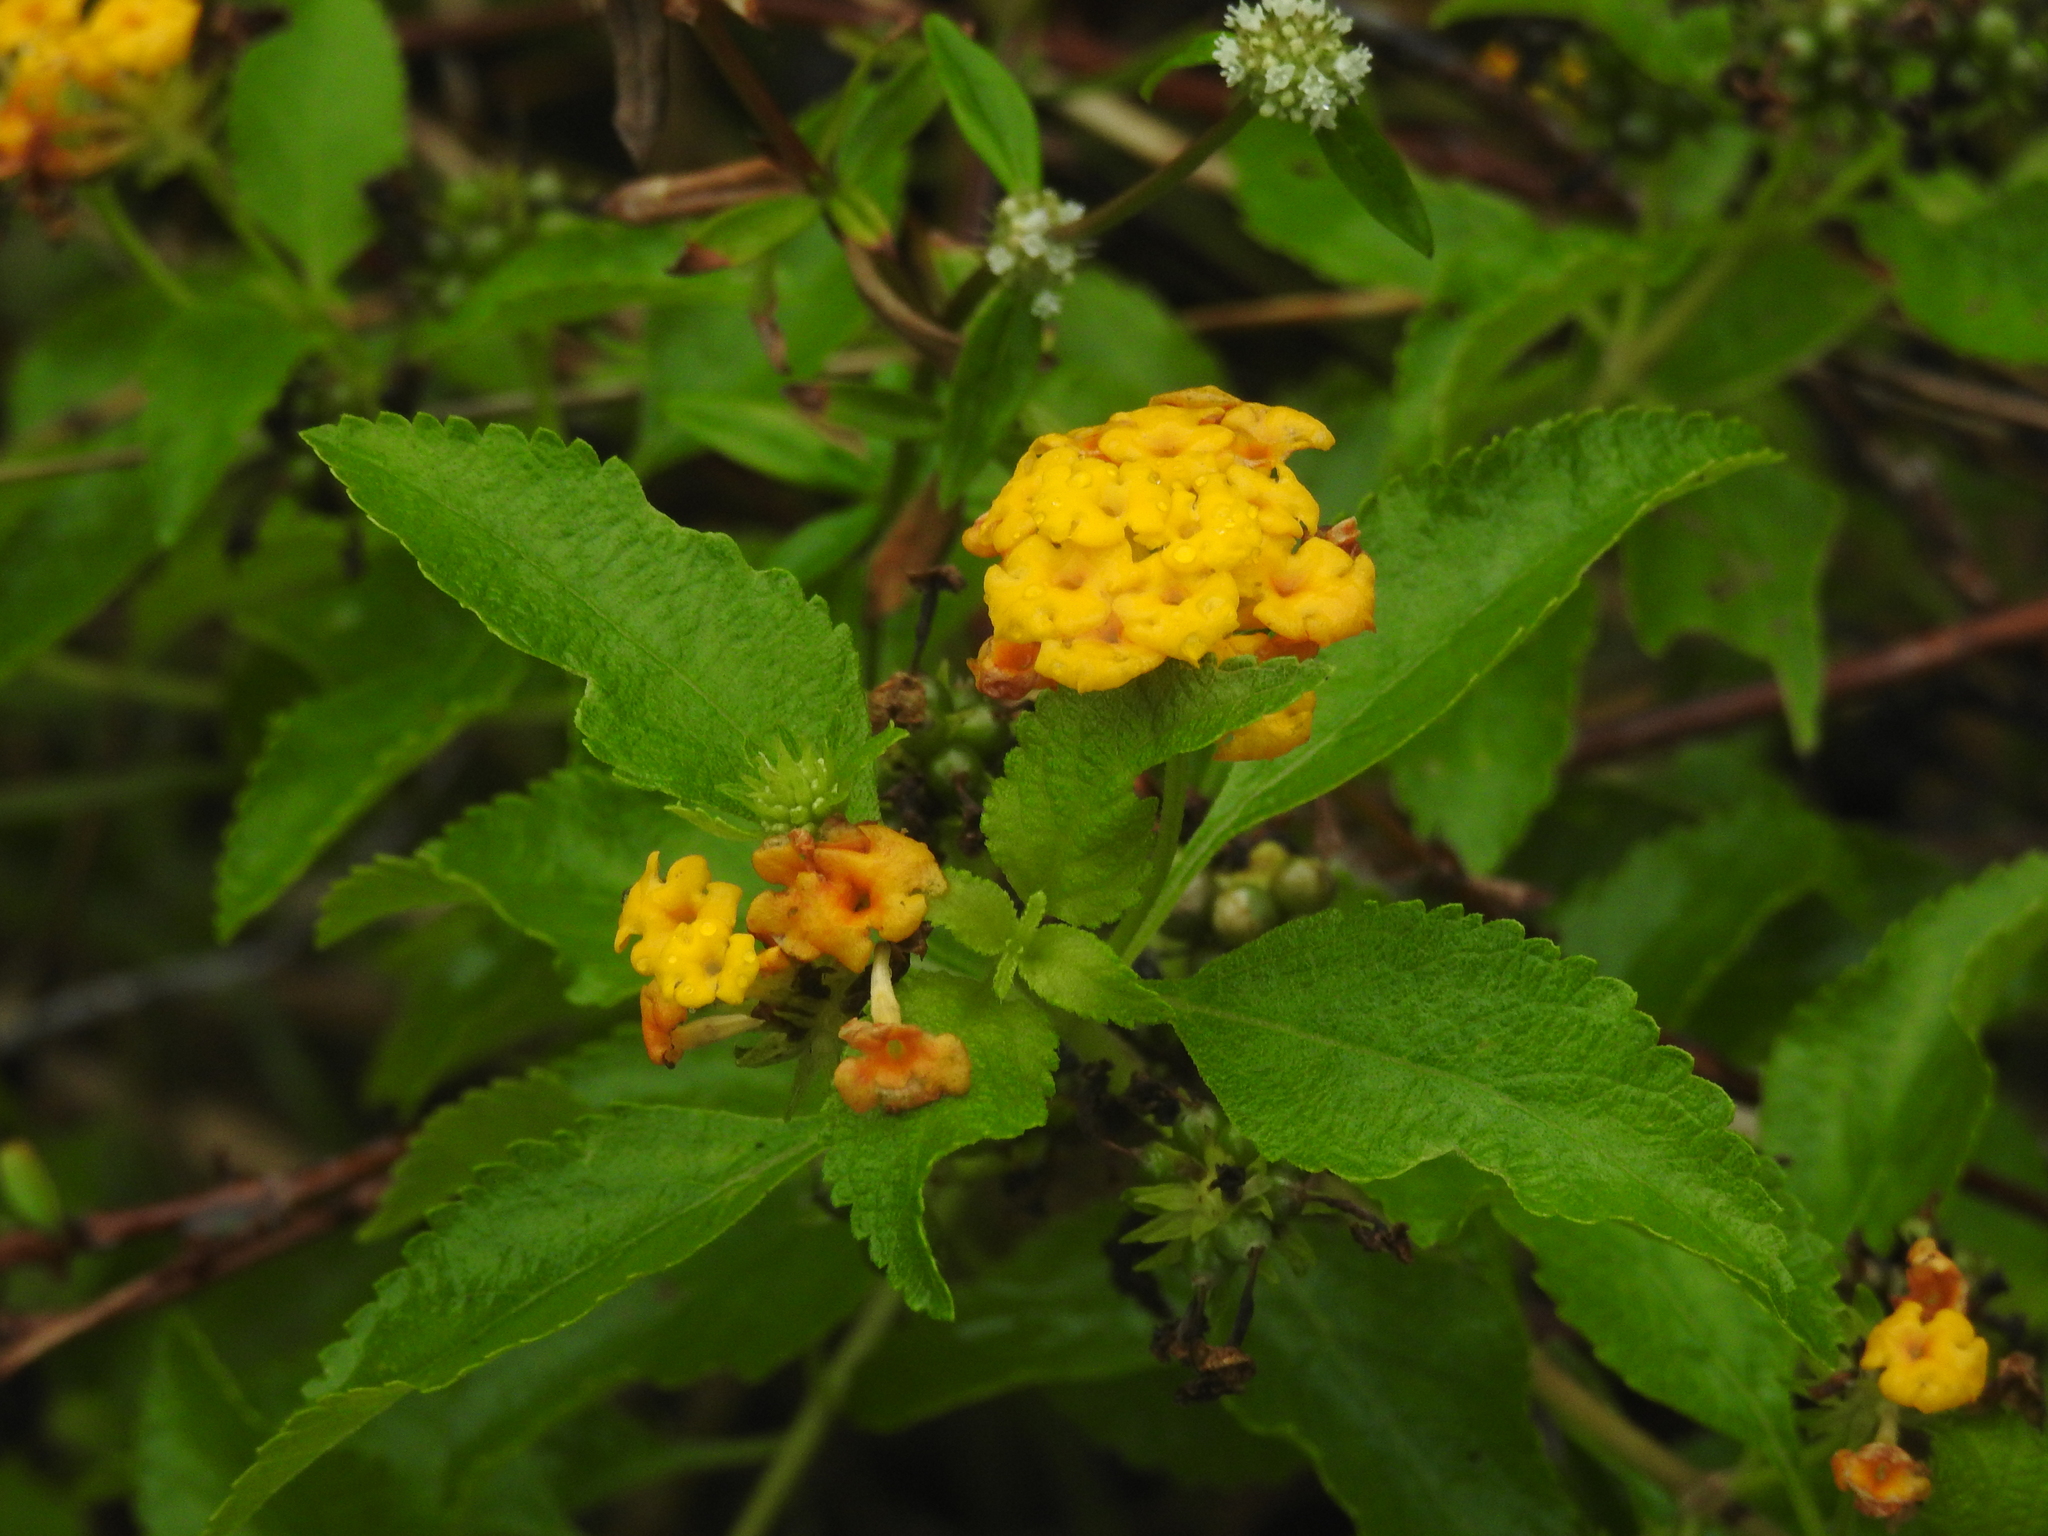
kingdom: Plantae
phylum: Tracheophyta
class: Magnoliopsida
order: Lamiales
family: Verbenaceae
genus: Lantana
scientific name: Lantana depressa
